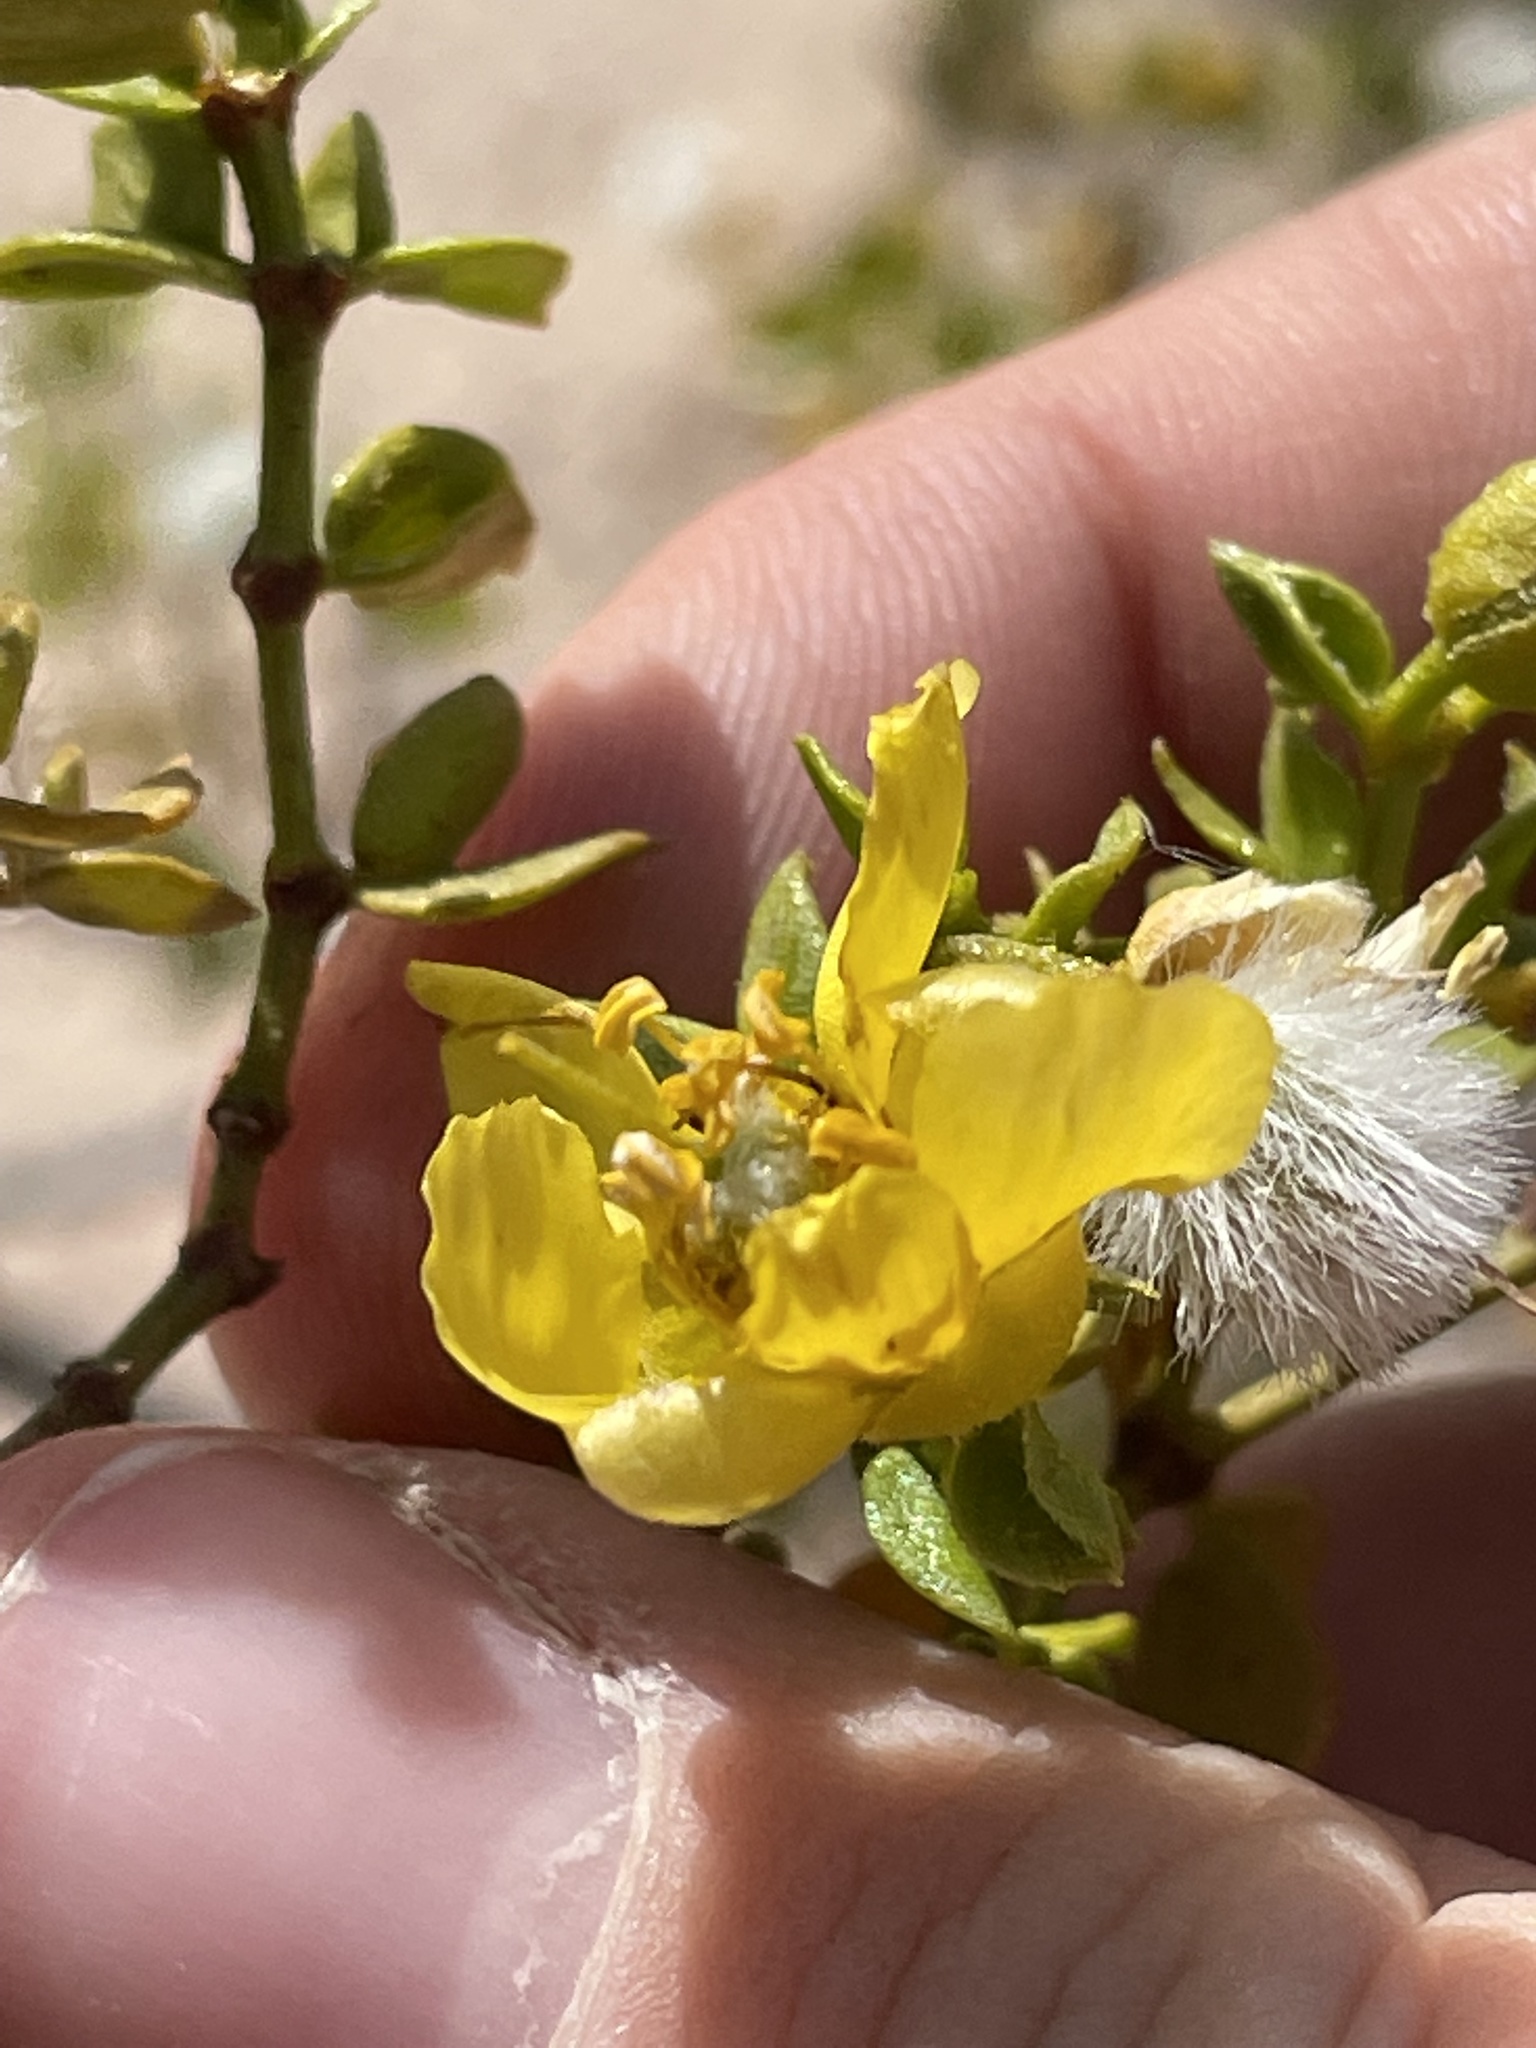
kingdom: Plantae
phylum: Tracheophyta
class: Magnoliopsida
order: Zygophyllales
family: Zygophyllaceae
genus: Larrea
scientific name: Larrea tridentata
